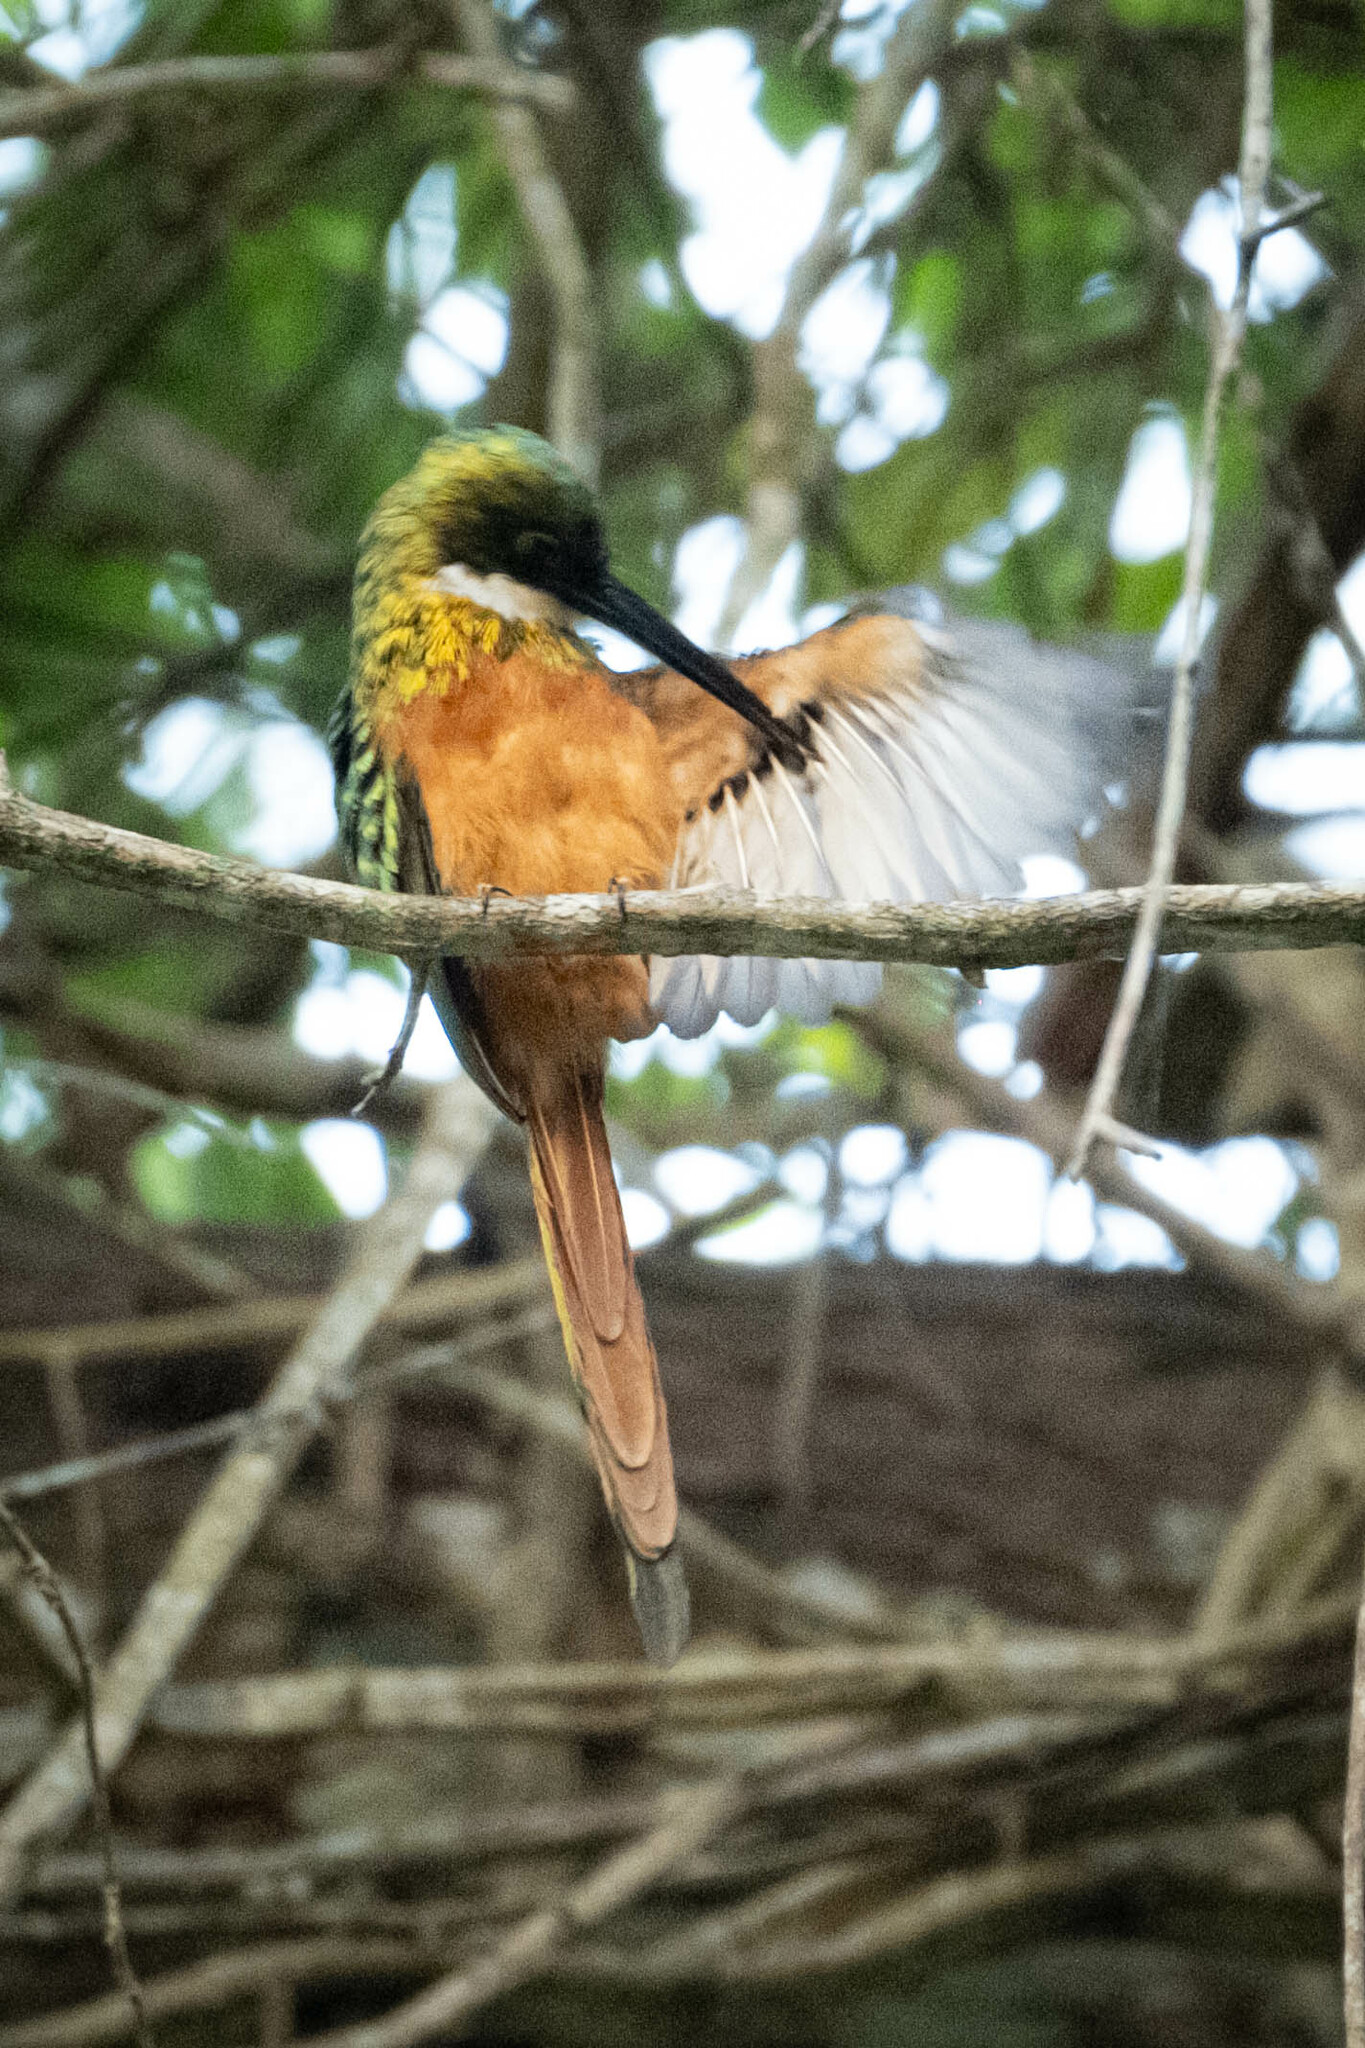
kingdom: Animalia
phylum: Chordata
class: Aves
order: Piciformes
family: Galbulidae
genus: Galbula
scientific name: Galbula ruficauda
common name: Rufous-tailed jacamar
